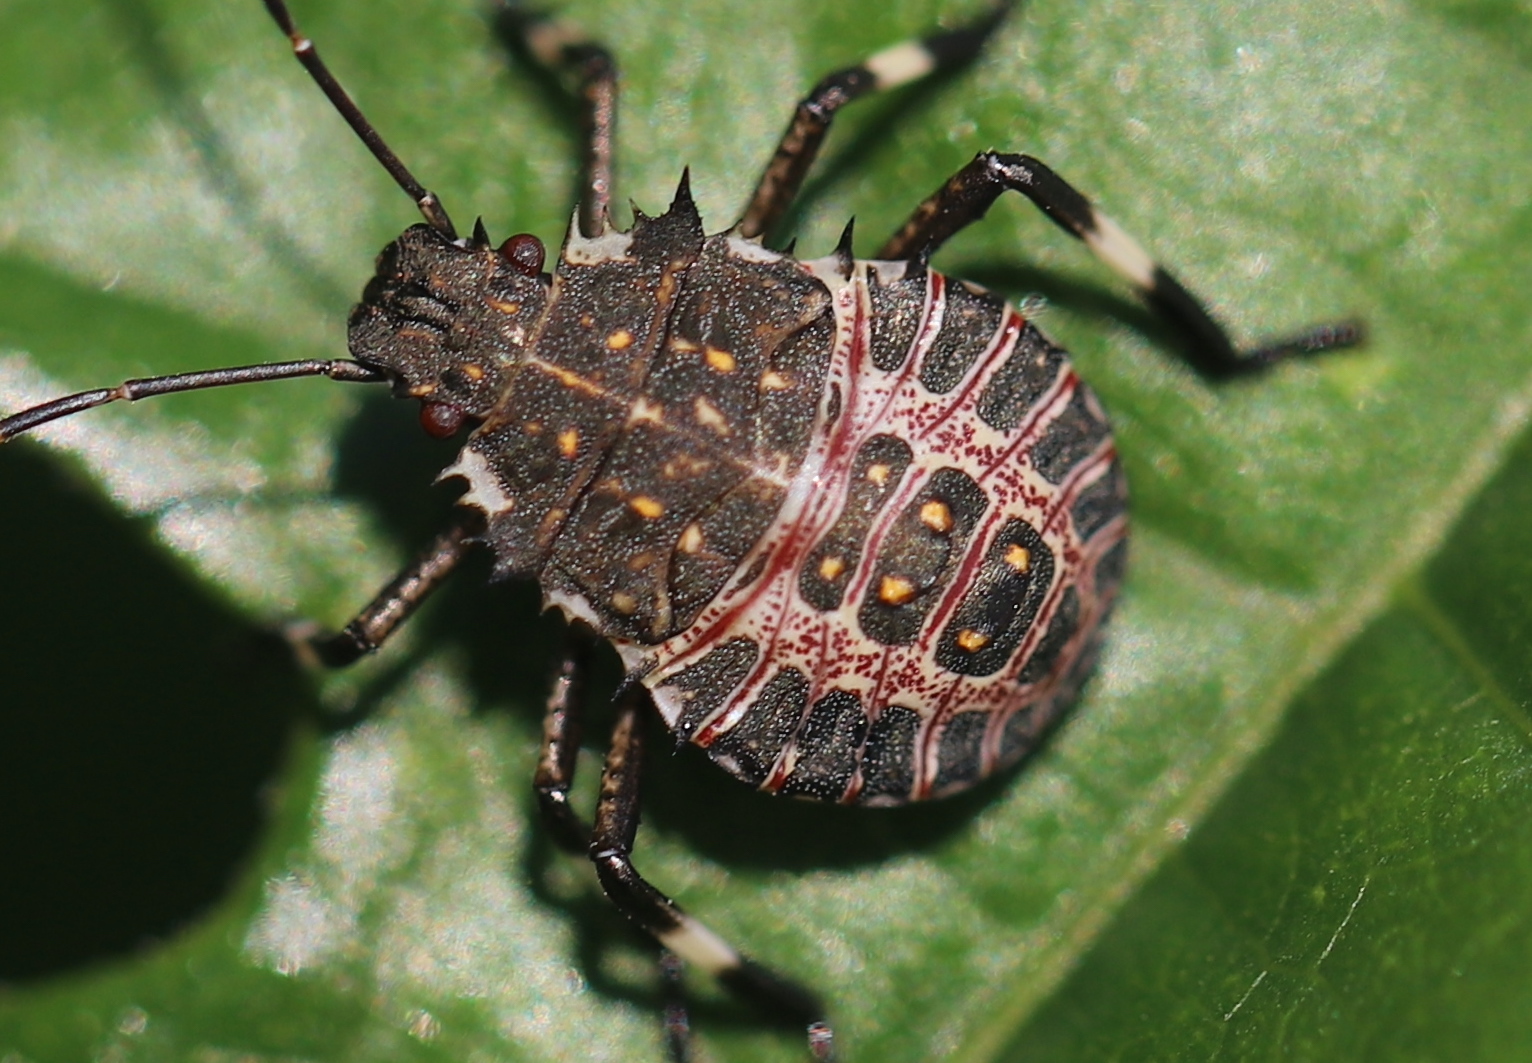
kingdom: Animalia
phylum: Arthropoda
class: Insecta
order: Hemiptera
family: Pentatomidae
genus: Halyomorpha
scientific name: Halyomorpha halys
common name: Brown marmorated stink bug
